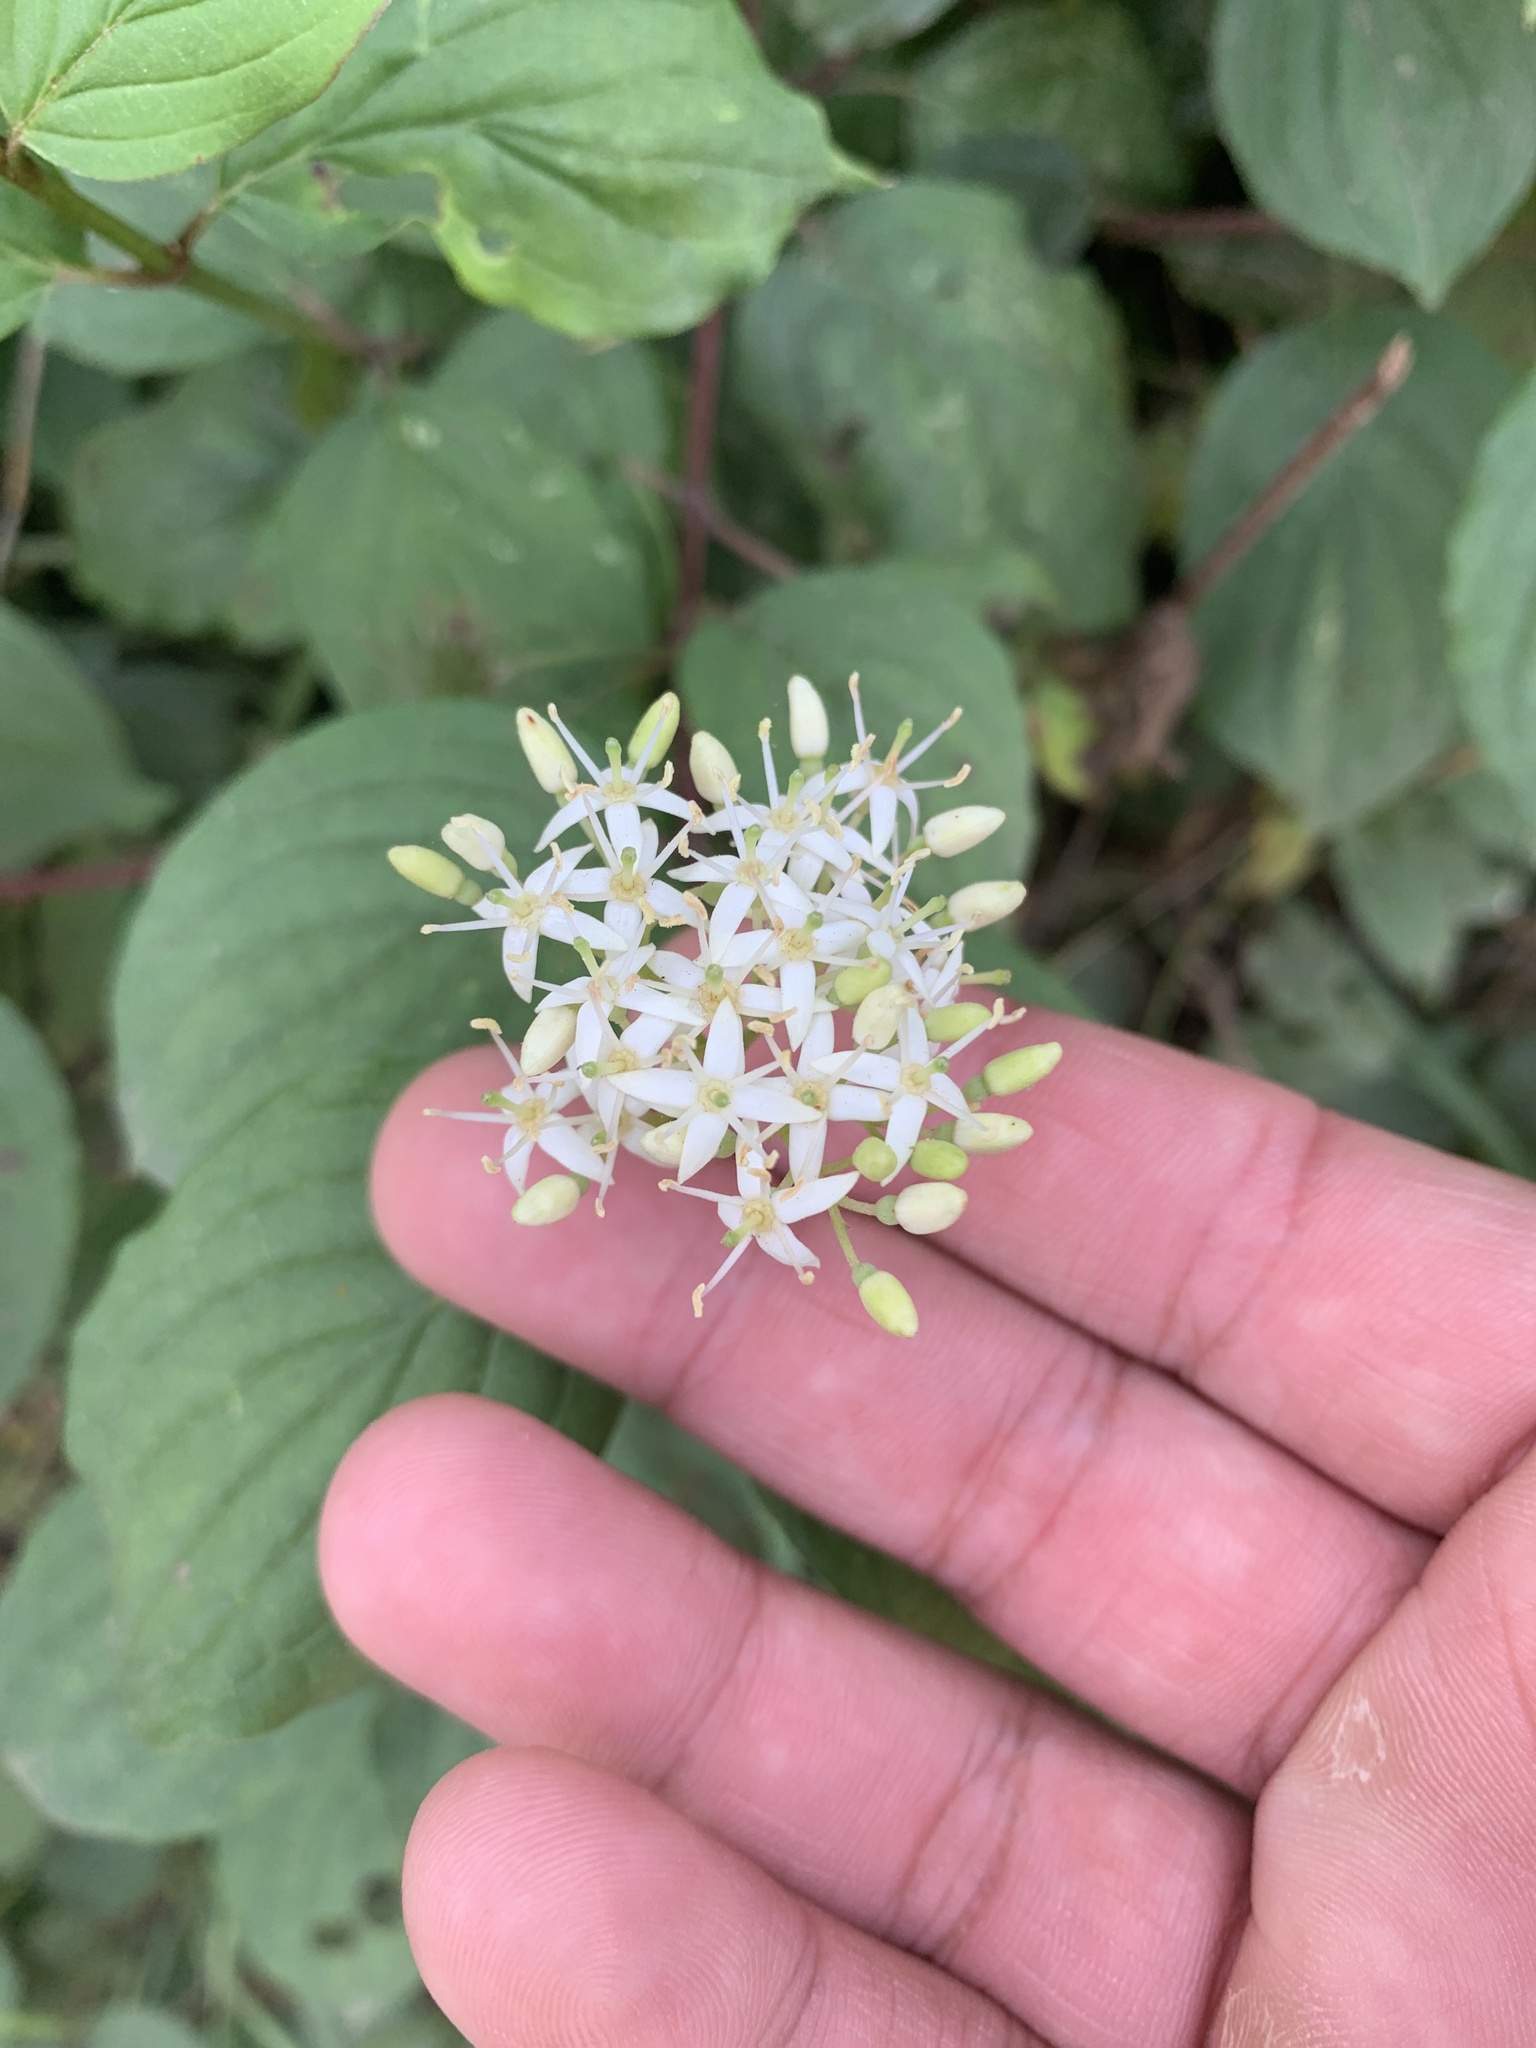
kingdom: Plantae
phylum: Tracheophyta
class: Magnoliopsida
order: Cornales
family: Cornaceae
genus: Cornus
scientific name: Cornus sanguinea
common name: Dogwood
